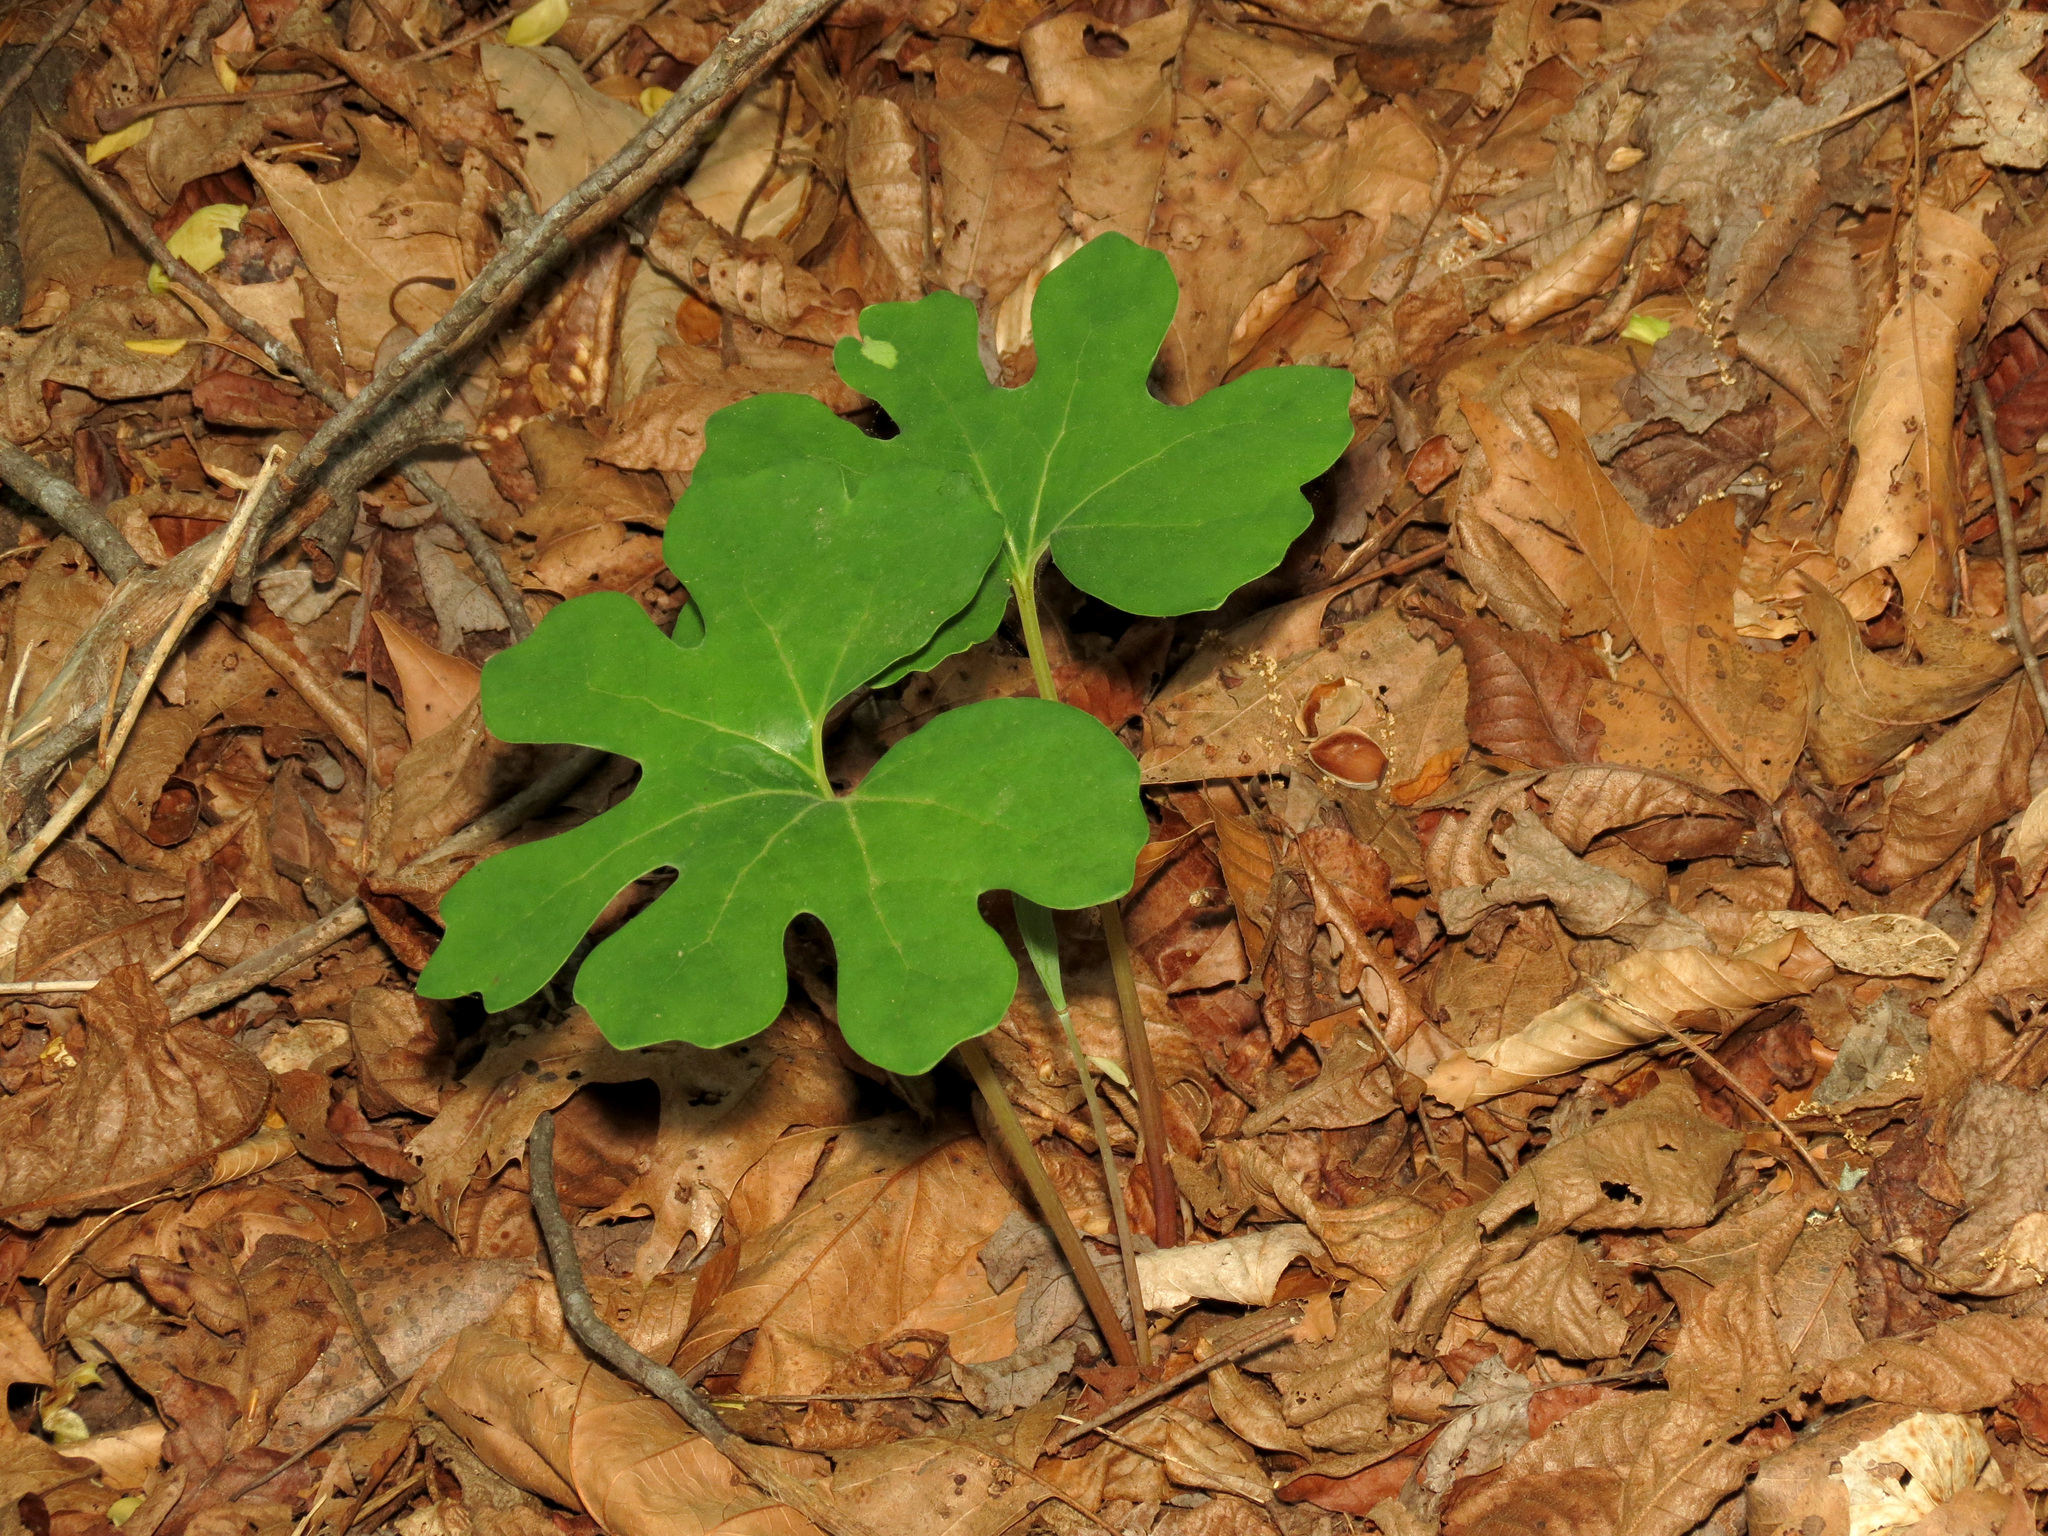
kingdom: Plantae
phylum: Tracheophyta
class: Magnoliopsida
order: Ranunculales
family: Papaveraceae
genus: Sanguinaria
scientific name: Sanguinaria canadensis
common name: Bloodroot
